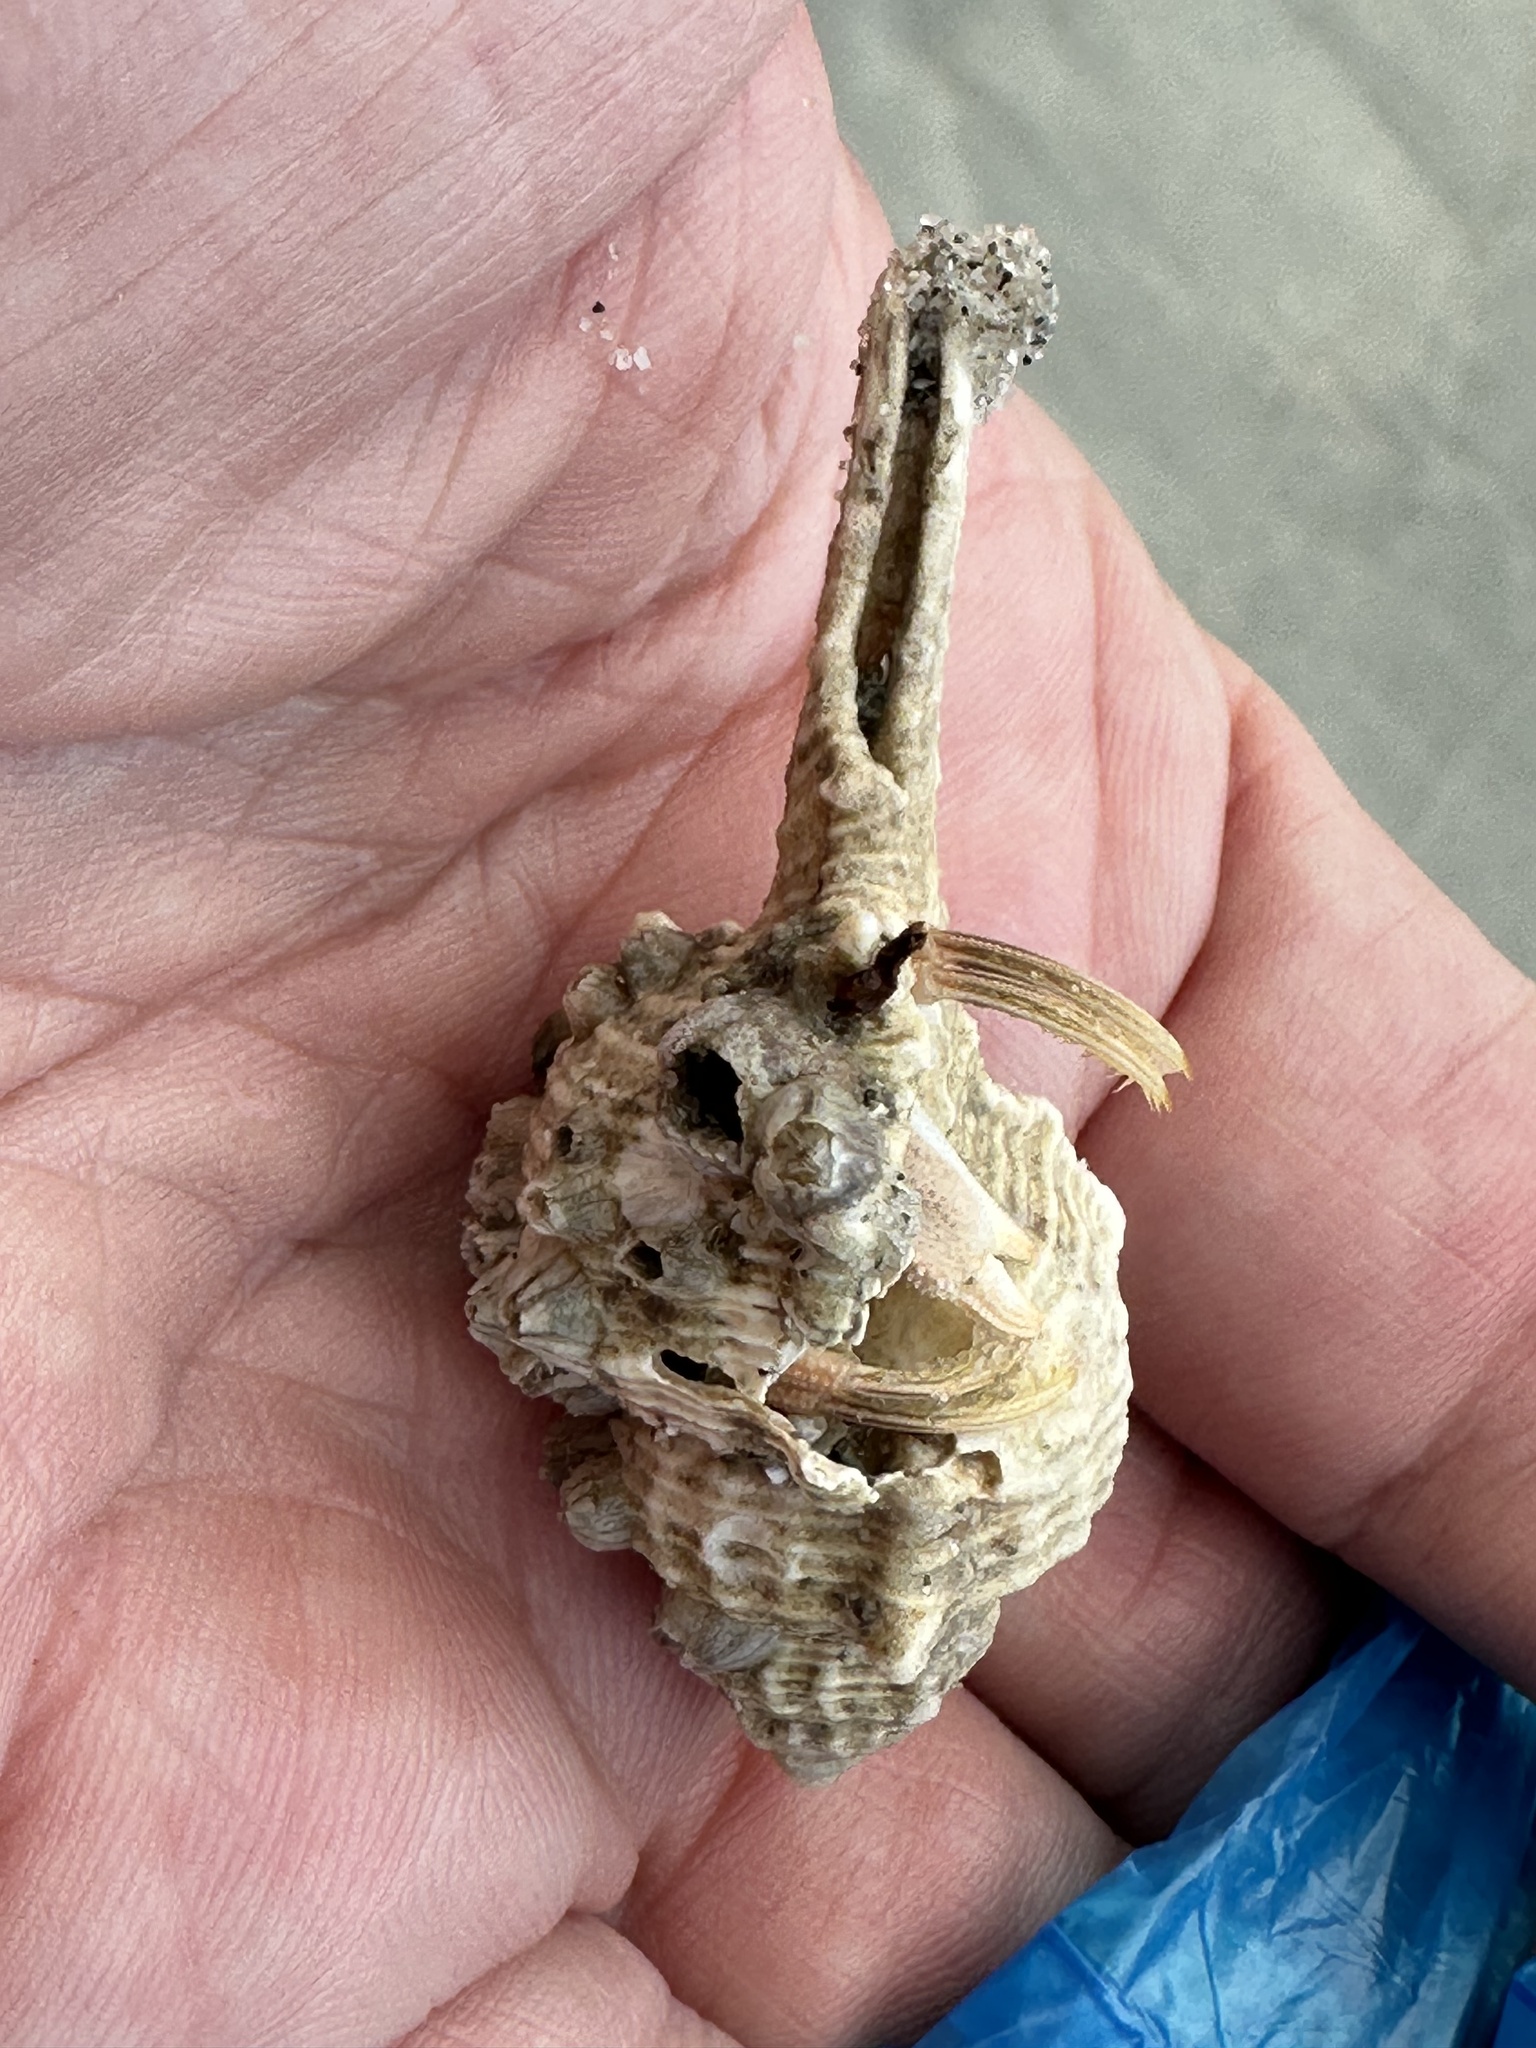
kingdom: Animalia
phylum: Mollusca
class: Gastropoda
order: Neogastropoda
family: Muricidae
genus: Murex
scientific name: Murex trapa
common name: Rare spined murex
